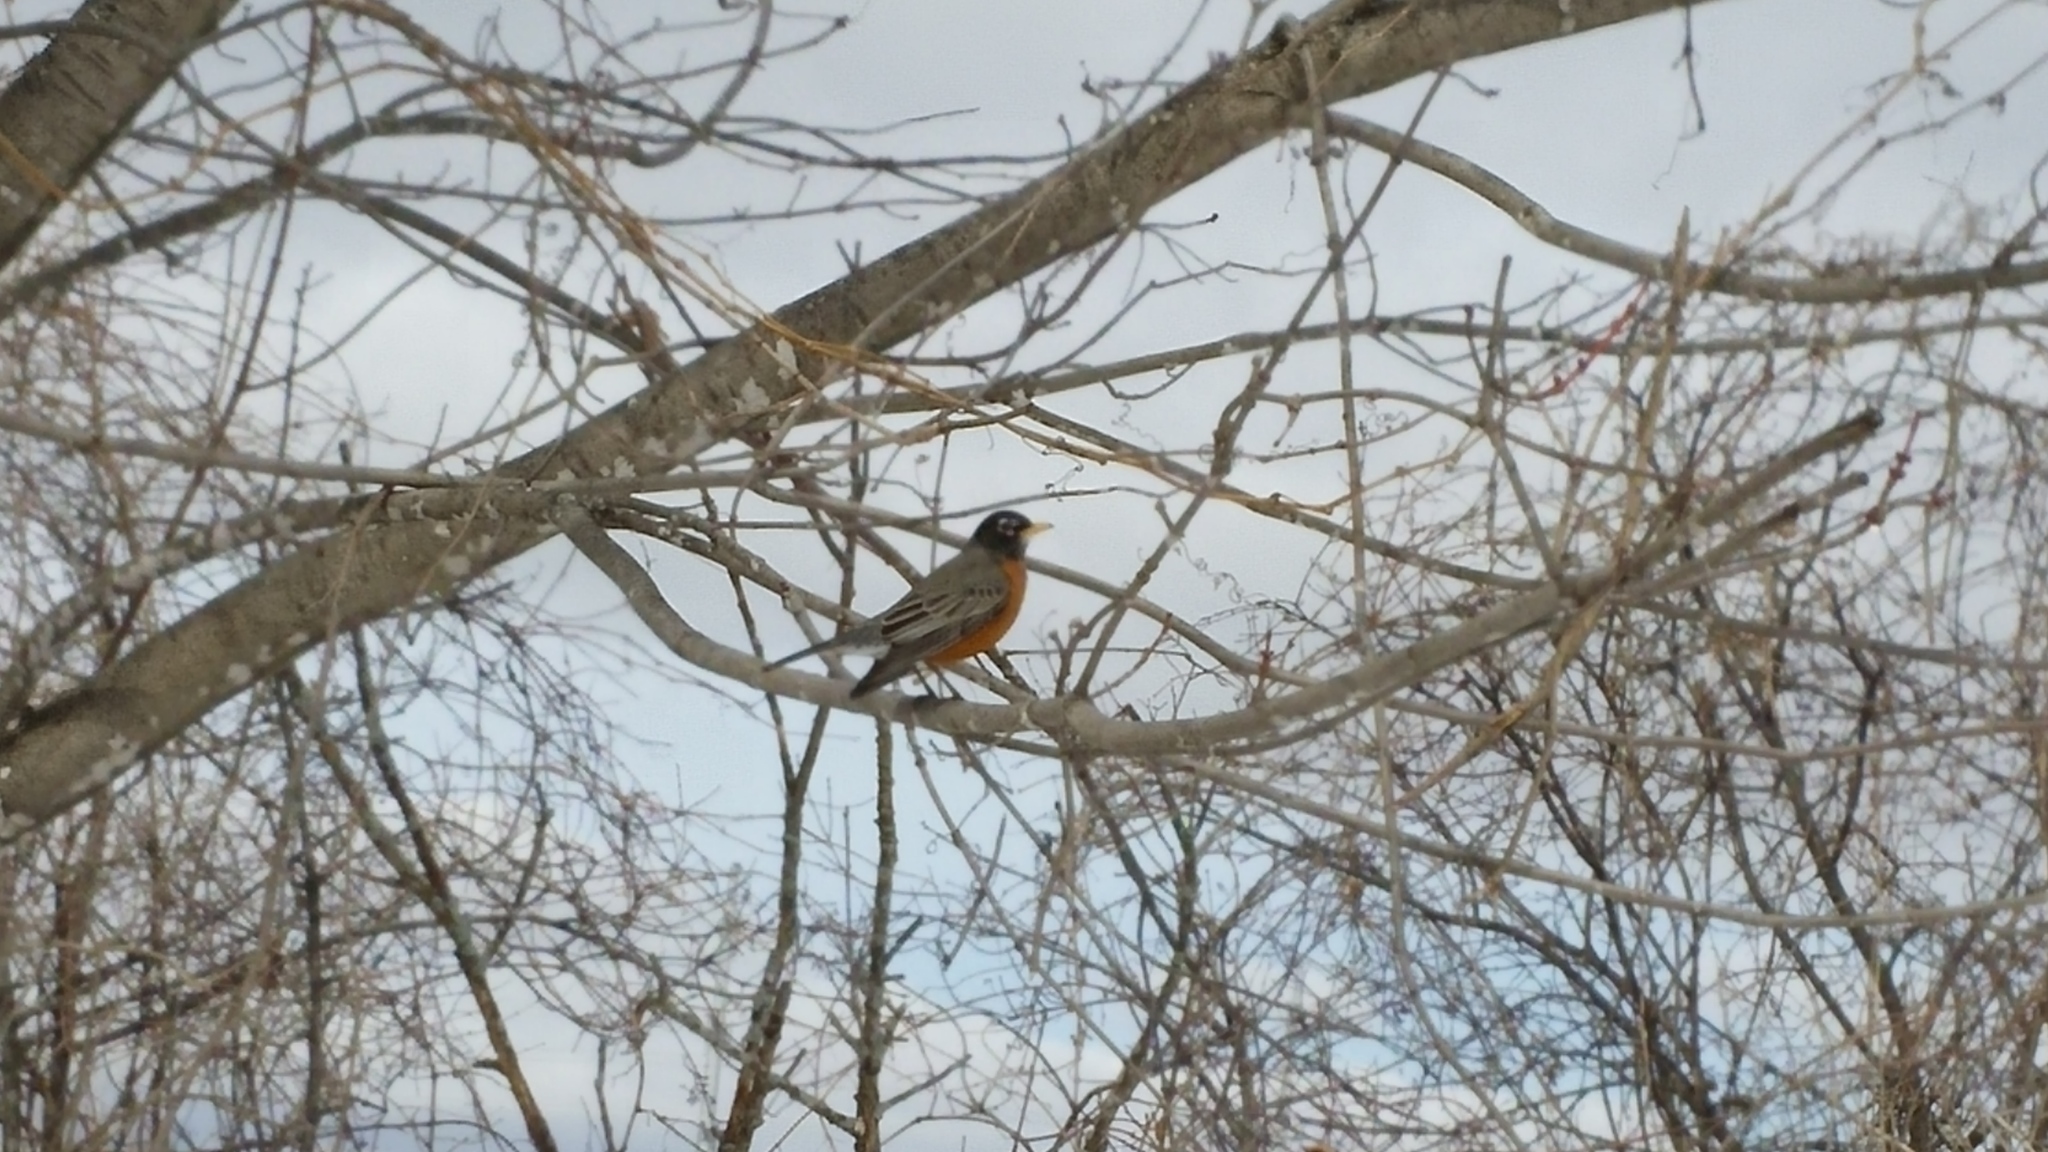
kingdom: Animalia
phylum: Chordata
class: Aves
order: Passeriformes
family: Turdidae
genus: Turdus
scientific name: Turdus migratorius
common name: American robin
